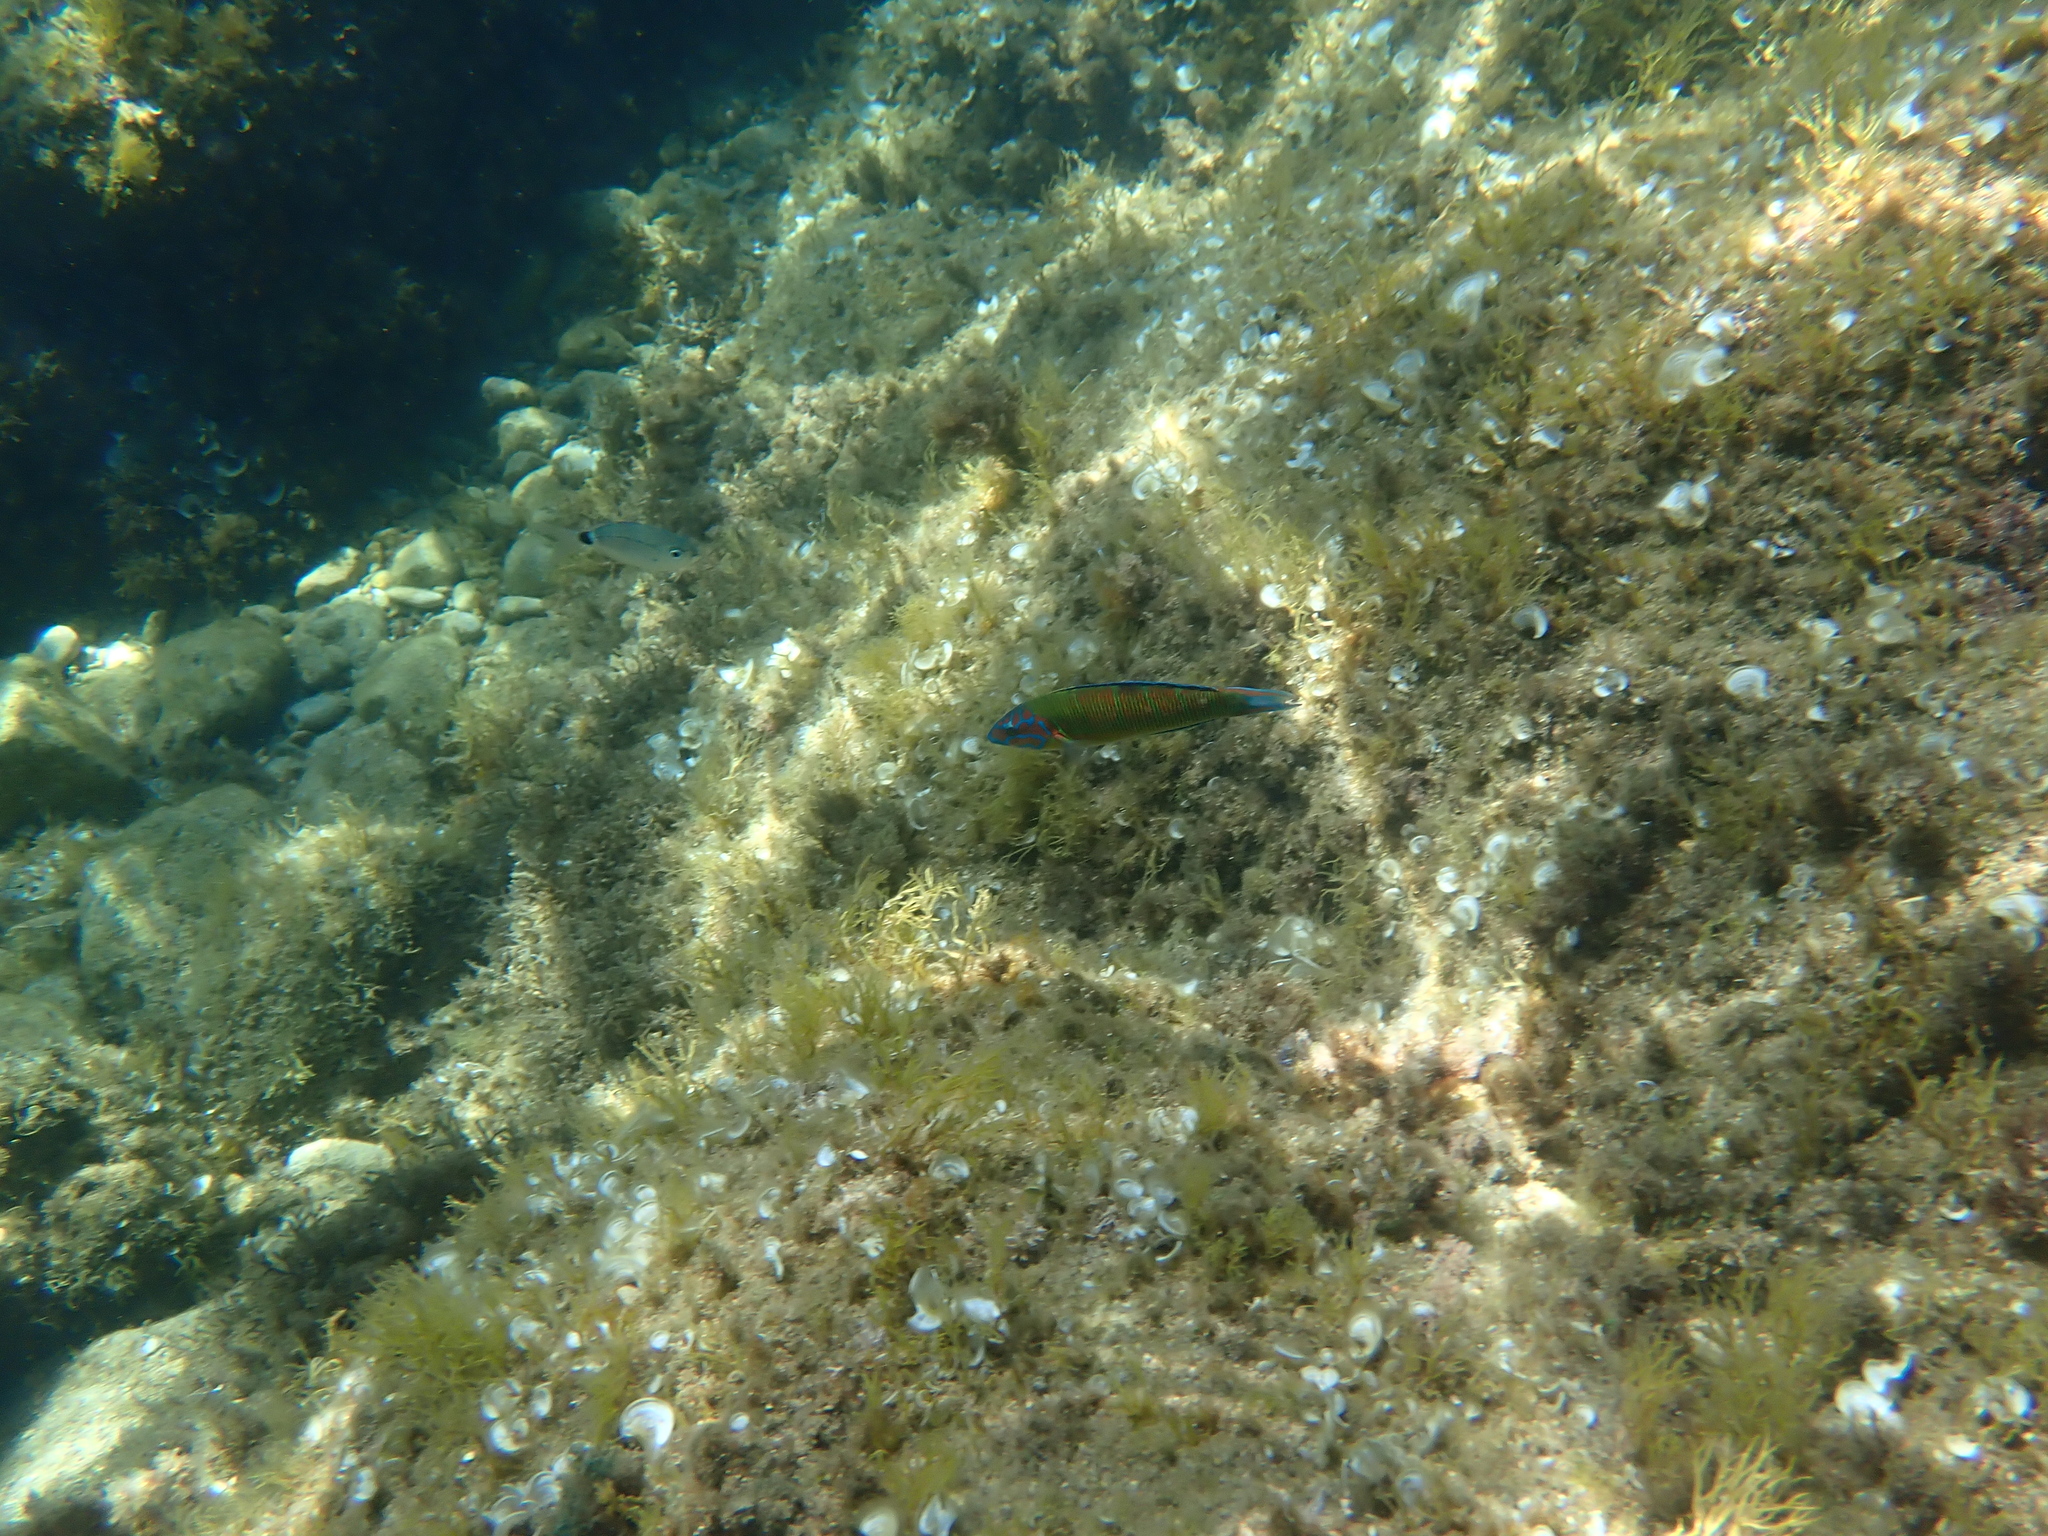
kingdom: Animalia
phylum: Chordata
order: Perciformes
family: Labridae
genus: Thalassoma
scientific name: Thalassoma pavo
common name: Ornate wrasse
